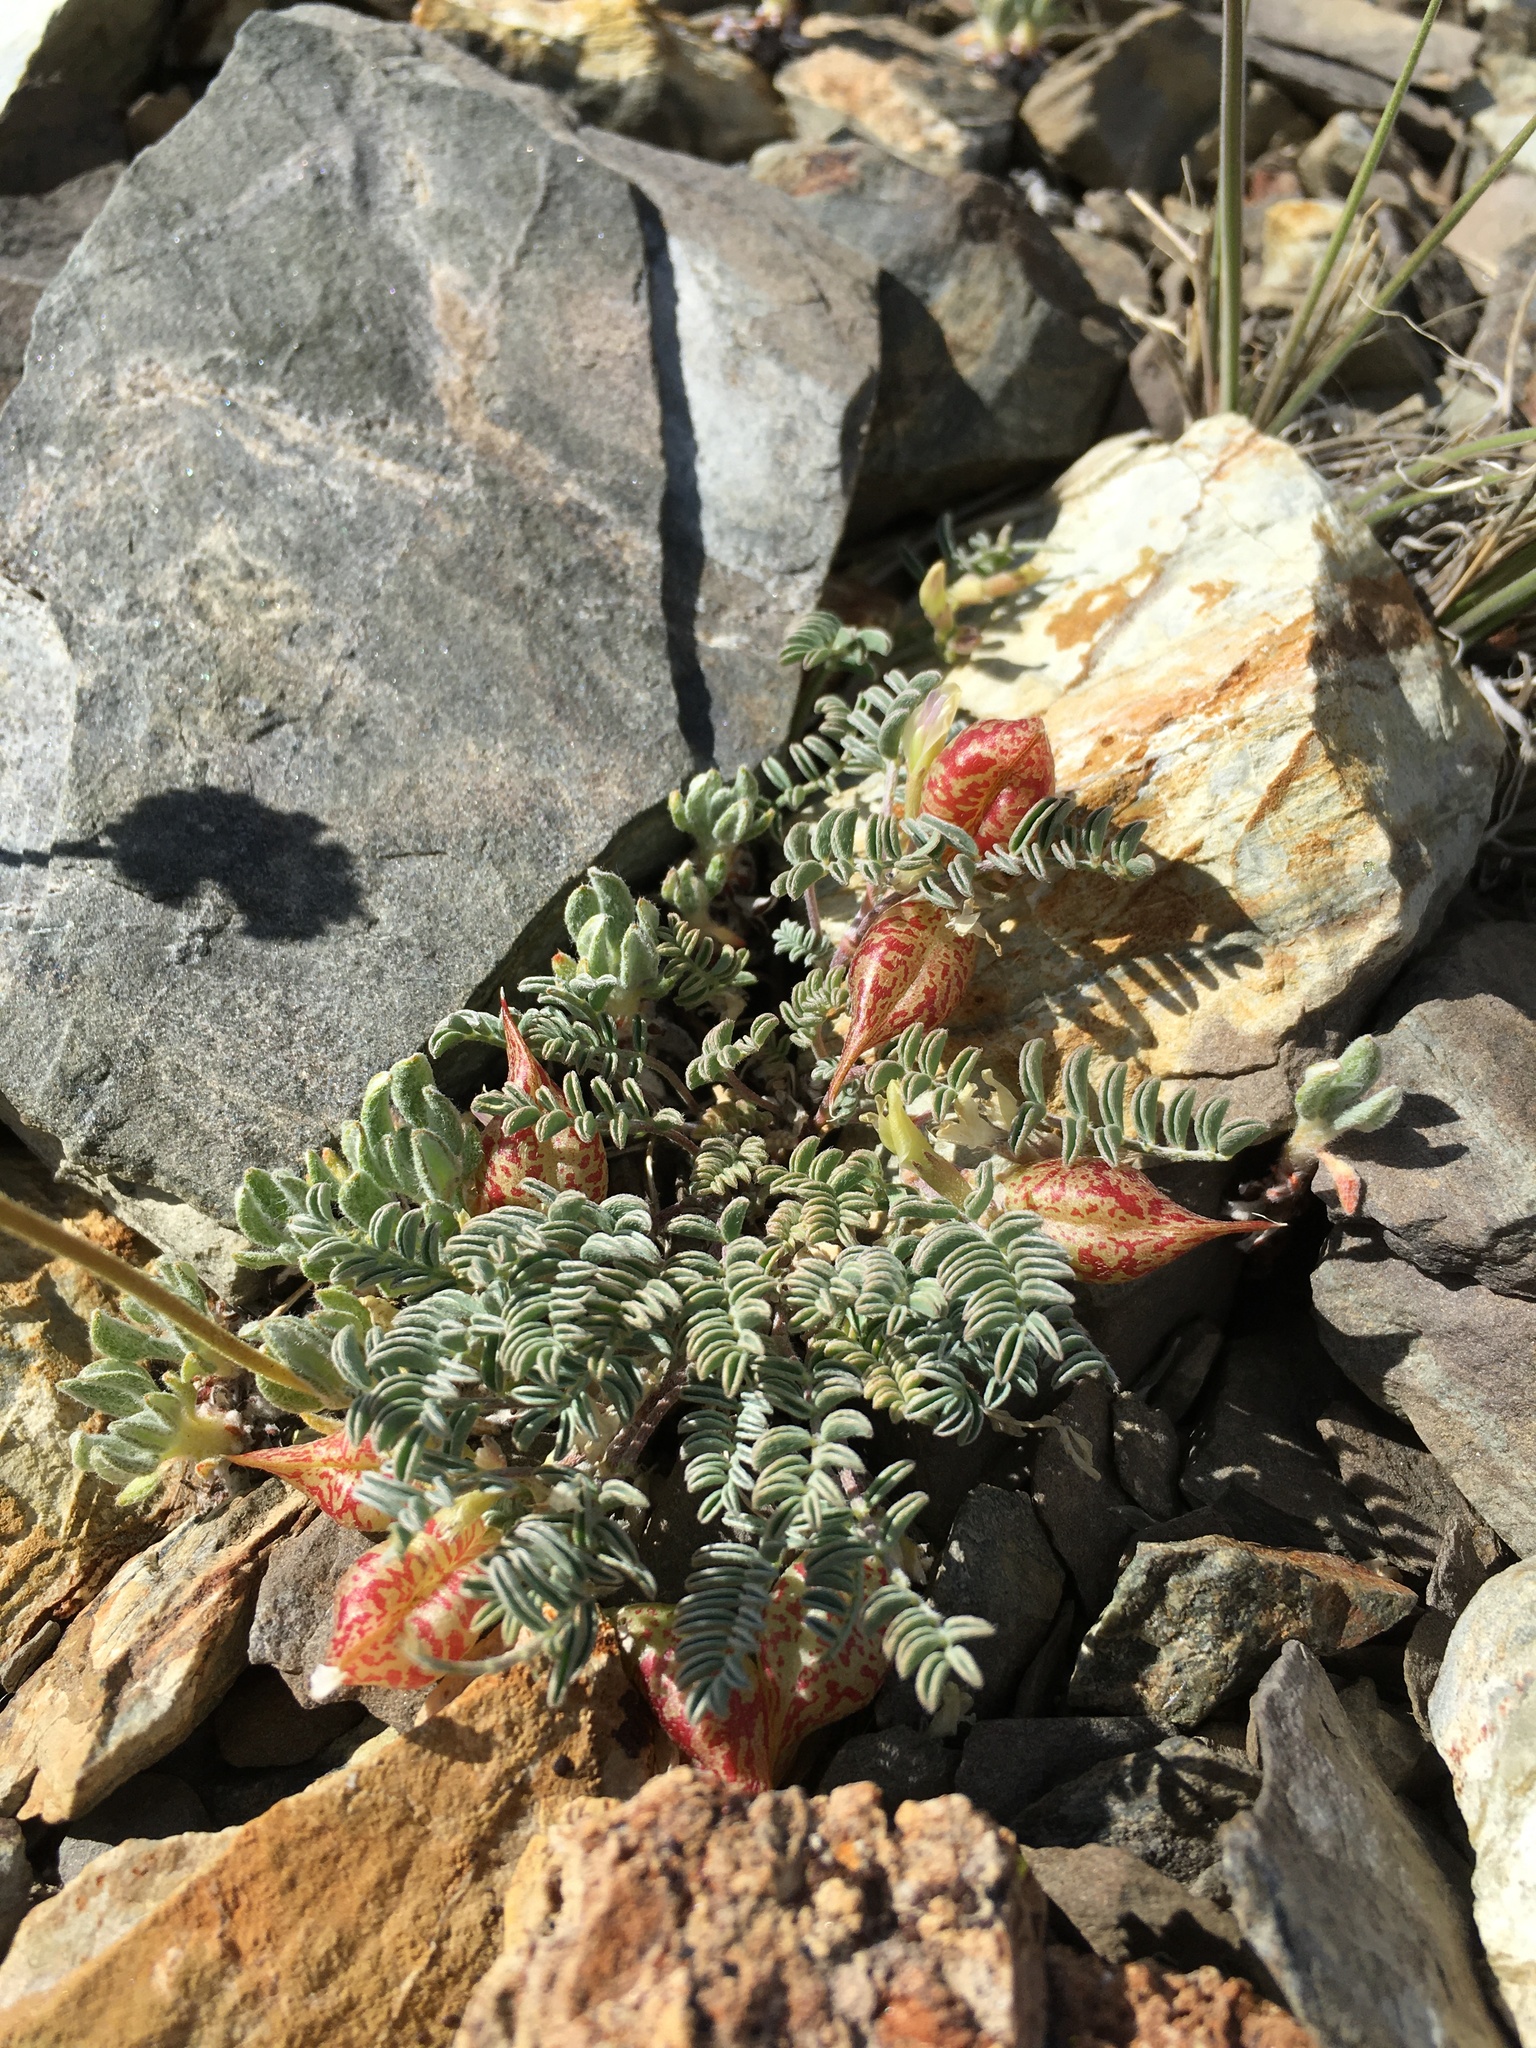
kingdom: Plantae
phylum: Tracheophyta
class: Magnoliopsida
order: Fabales
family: Fabaceae
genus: Astragalus
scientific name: Astragalus lentiginosus
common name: Freckled milkvetch
